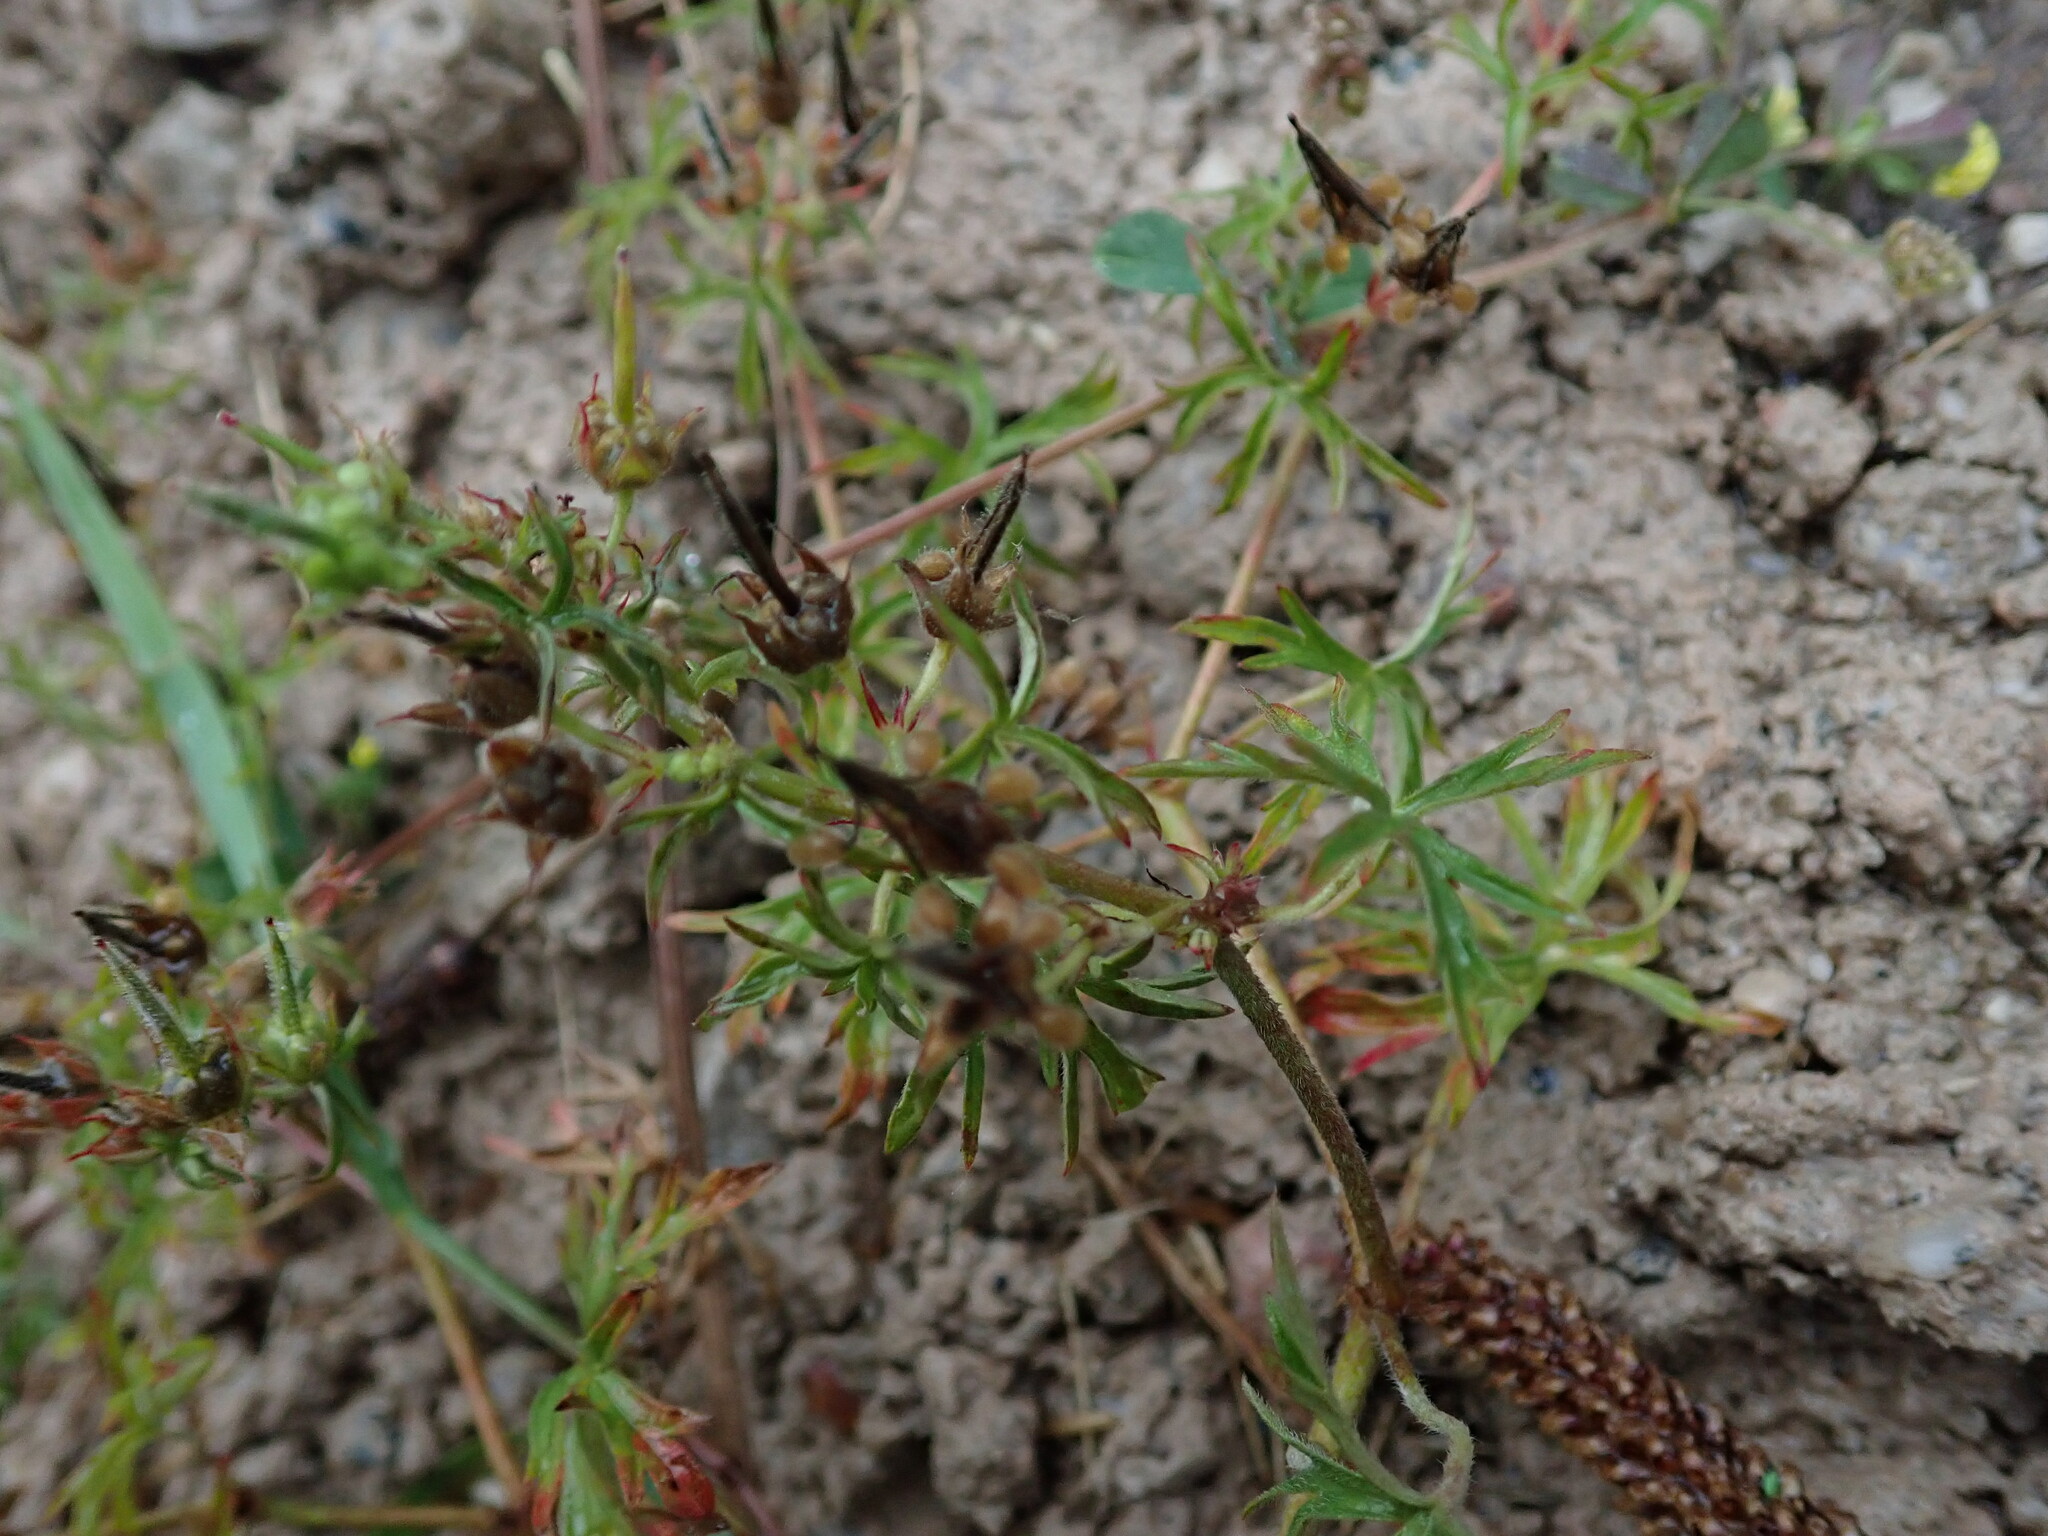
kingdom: Plantae
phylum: Tracheophyta
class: Magnoliopsida
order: Geraniales
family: Geraniaceae
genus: Geranium
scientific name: Geranium dissectum
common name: Cut-leaved crane's-bill
